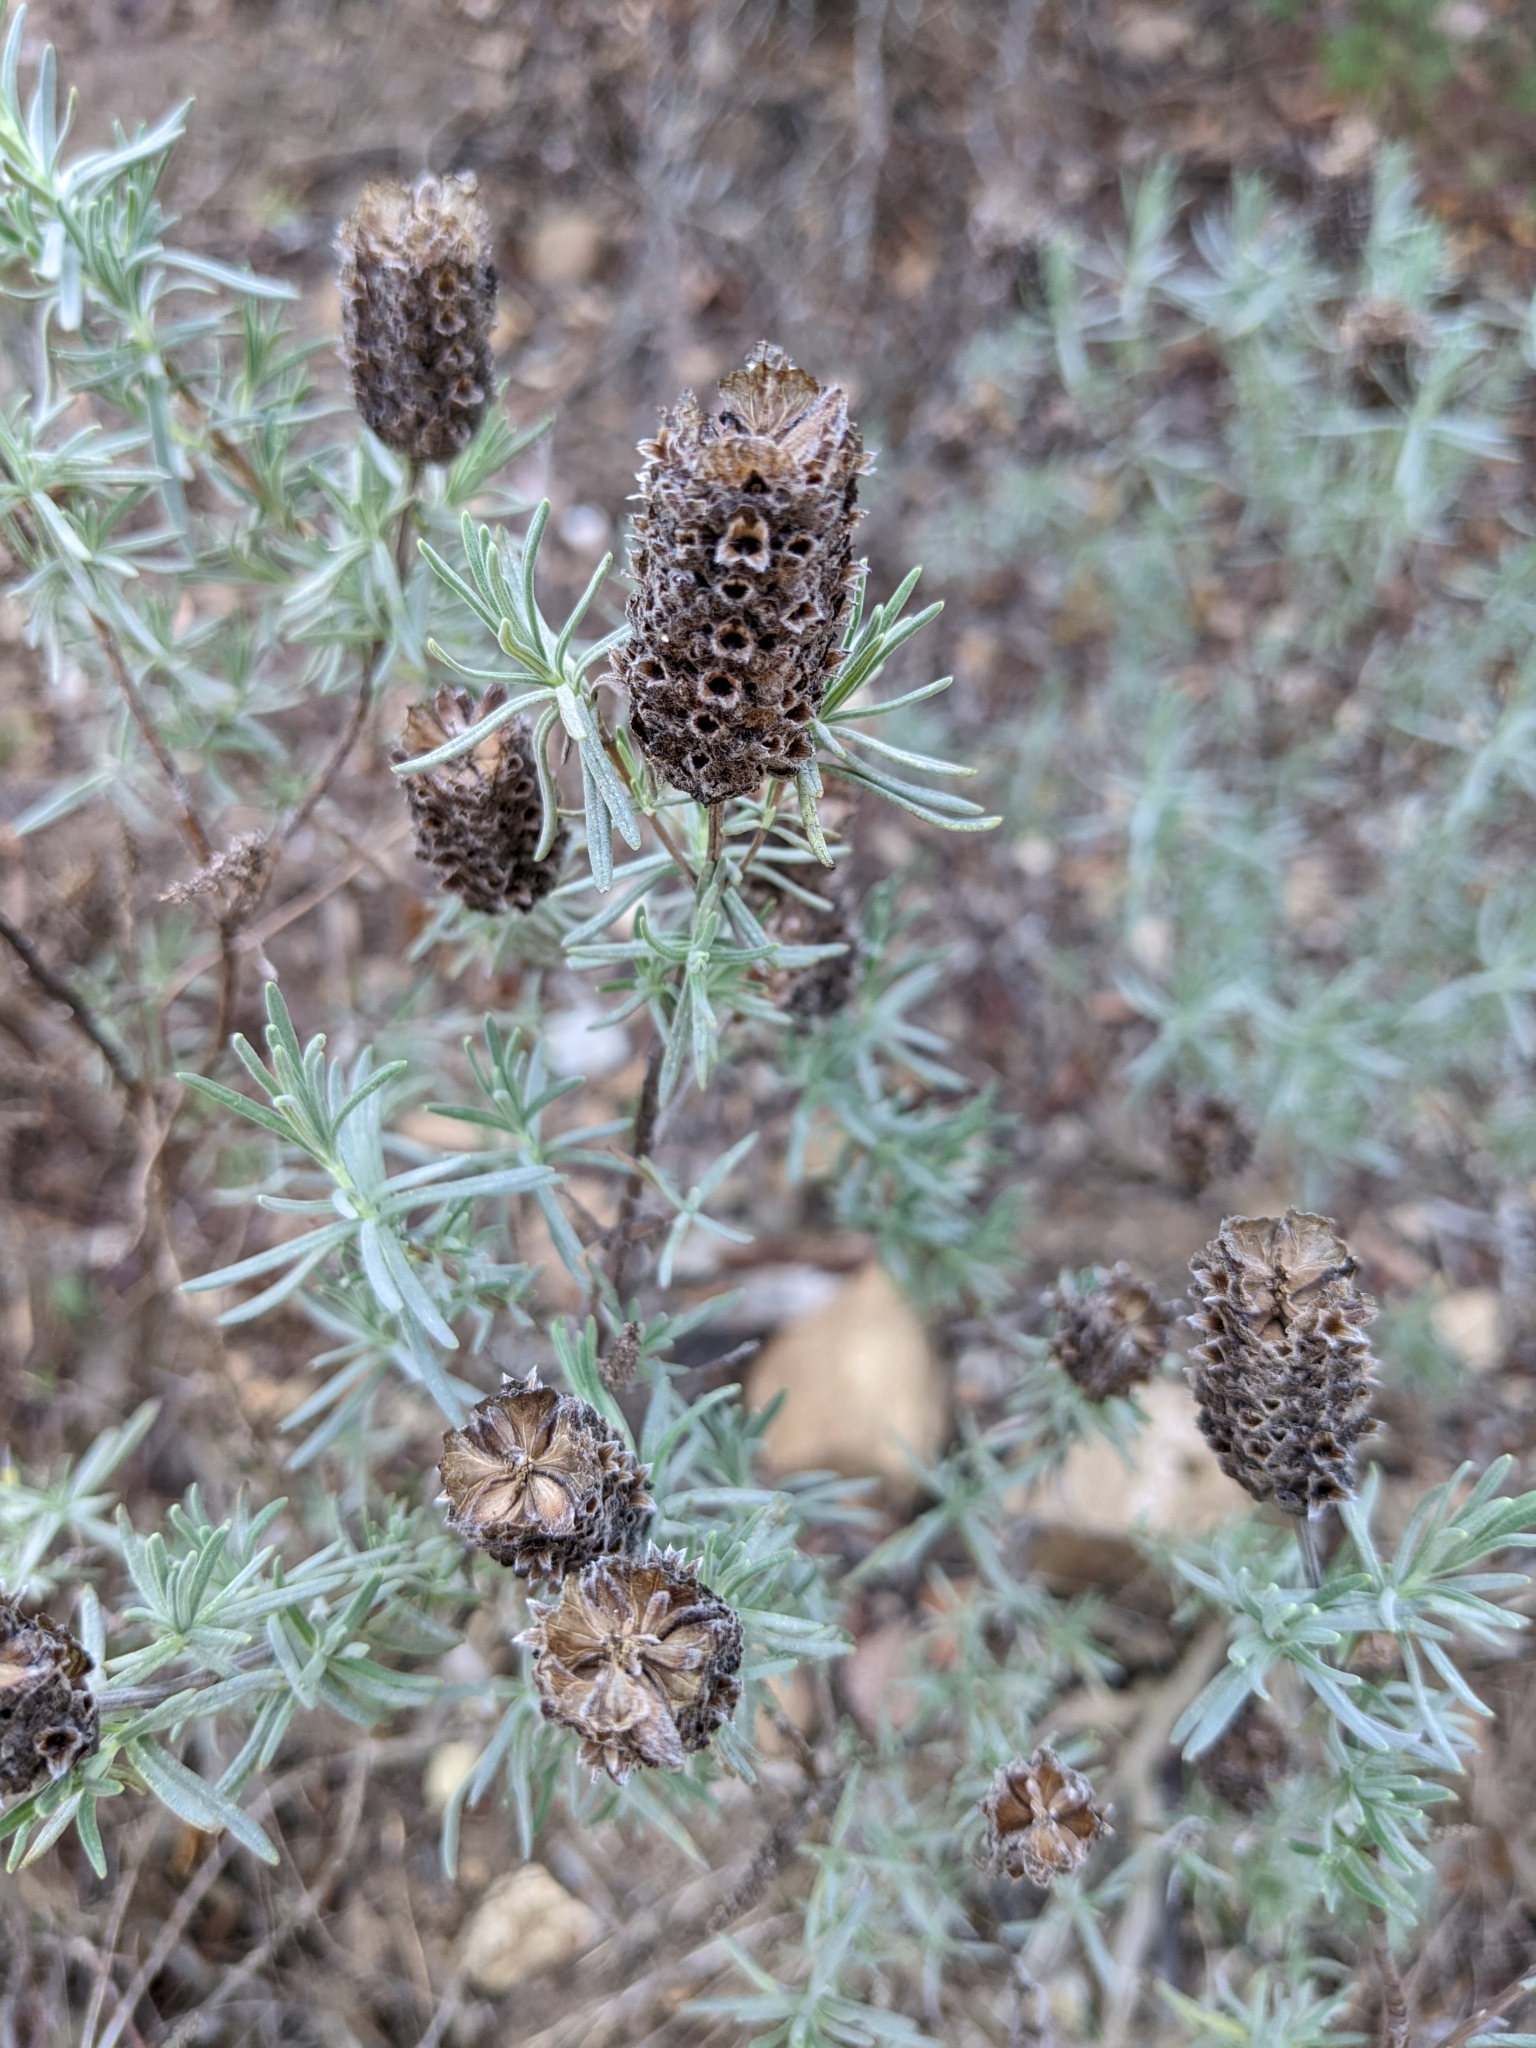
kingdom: Plantae
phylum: Tracheophyta
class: Magnoliopsida
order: Lamiales
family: Lamiaceae
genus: Lavandula
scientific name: Lavandula stoechas
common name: French lavender
